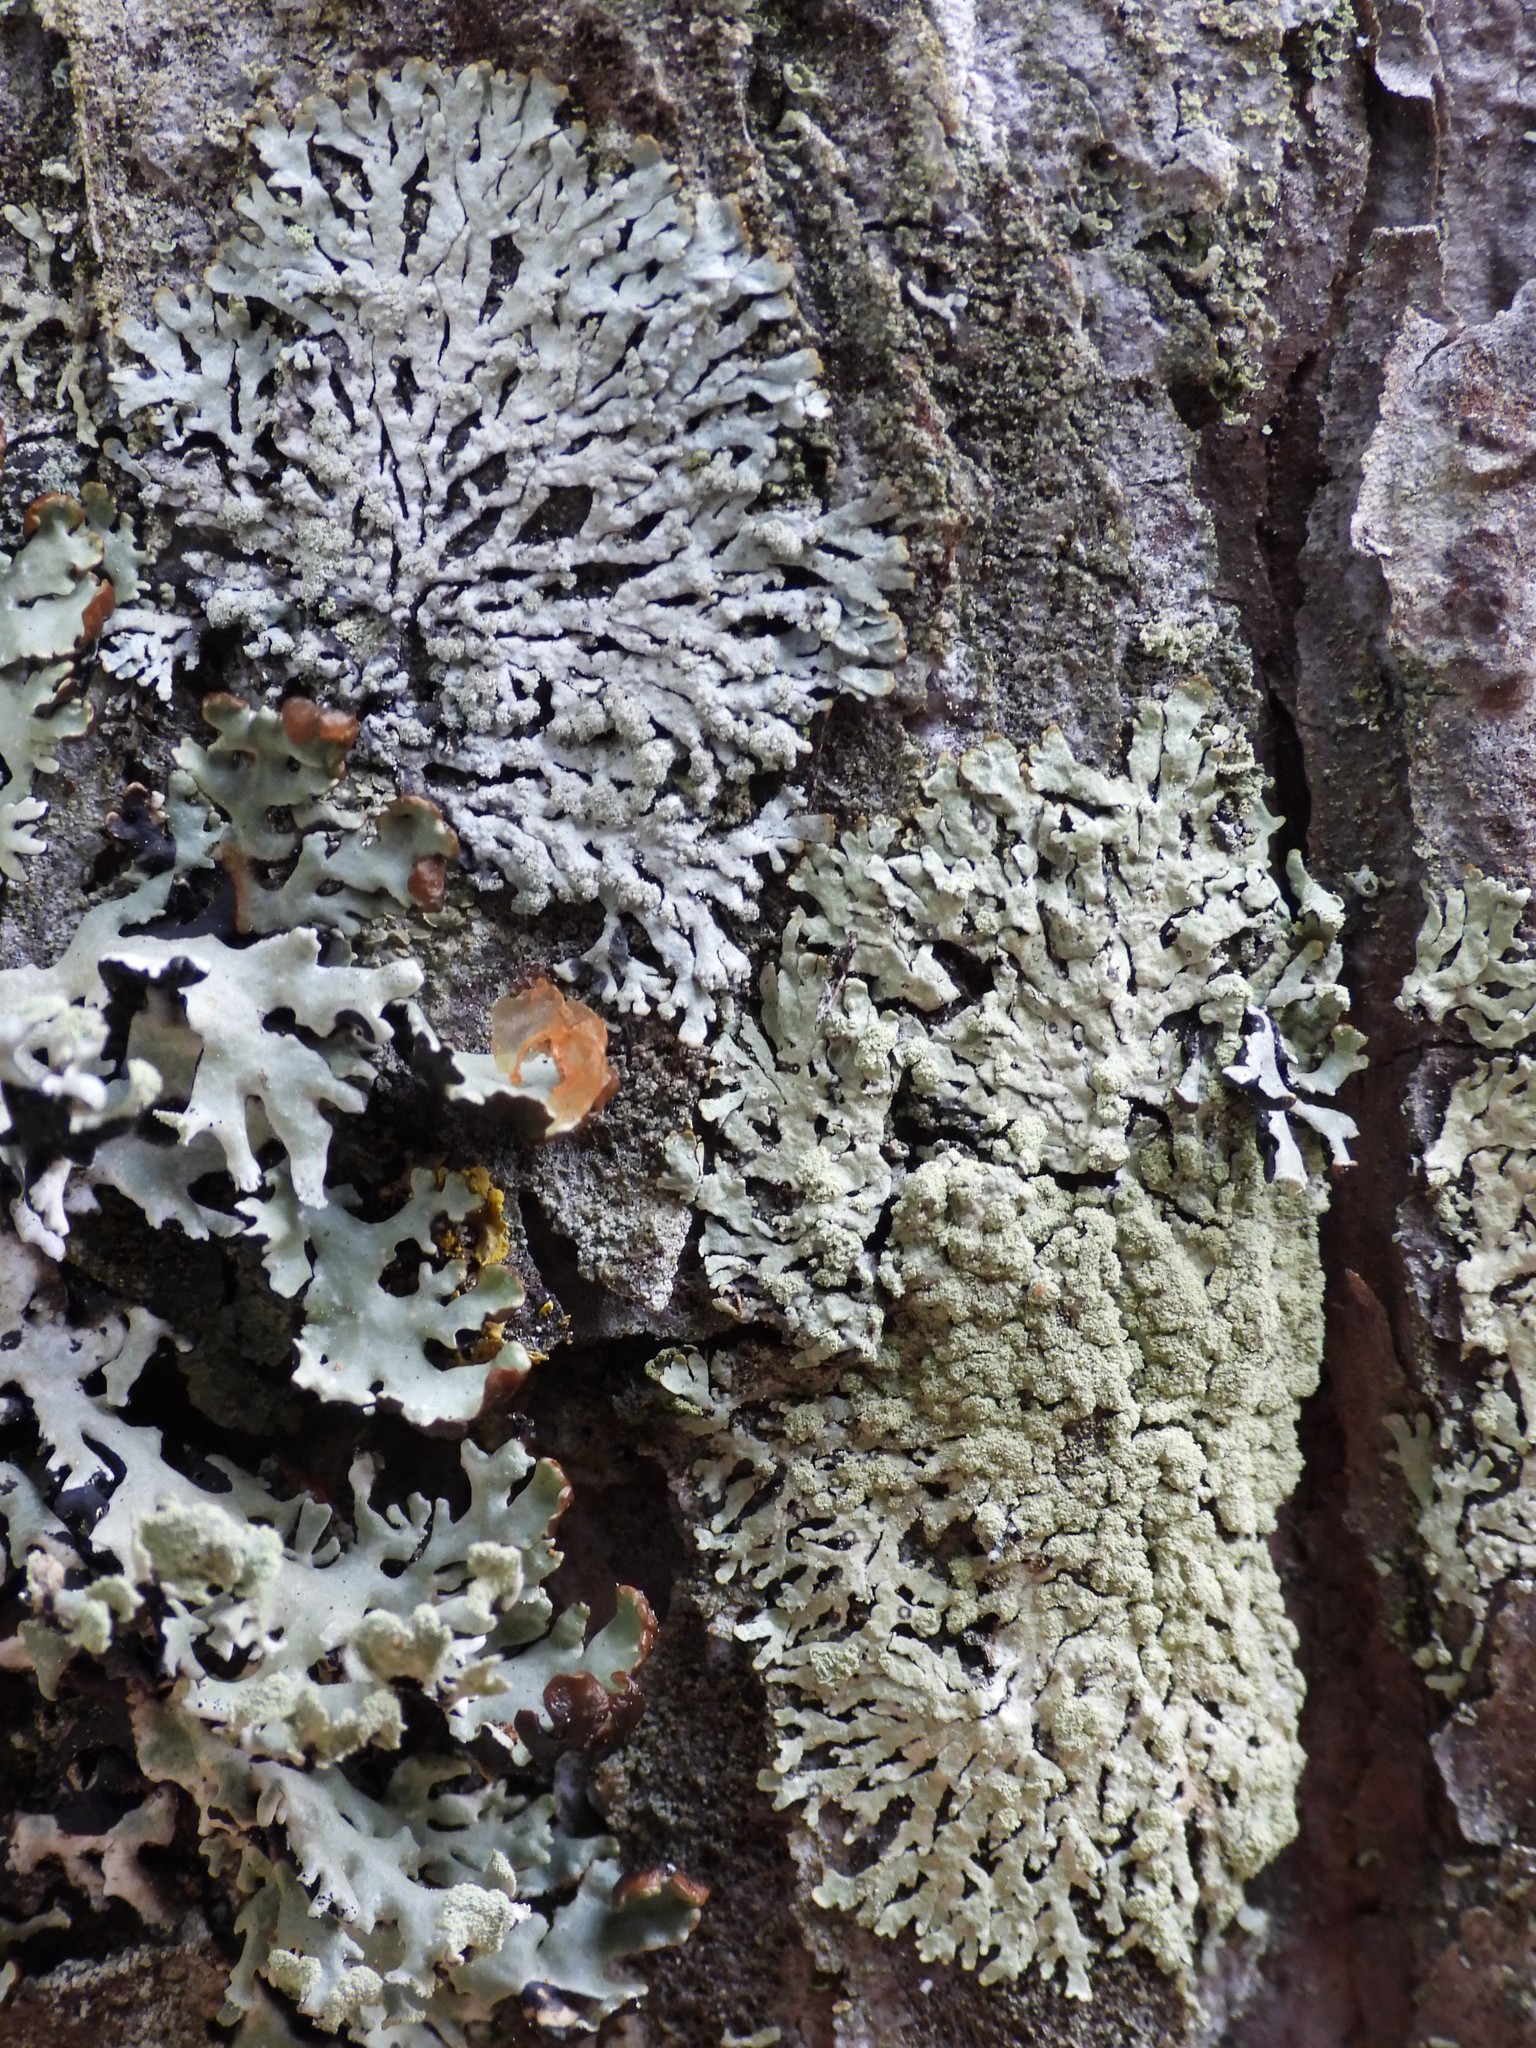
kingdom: Fungi
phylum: Ascomycota
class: Lecanoromycetes
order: Lecanorales
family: Parmeliaceae
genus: Parmeliopsis
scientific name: Parmeliopsis ambigua
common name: Green starburst lichen
